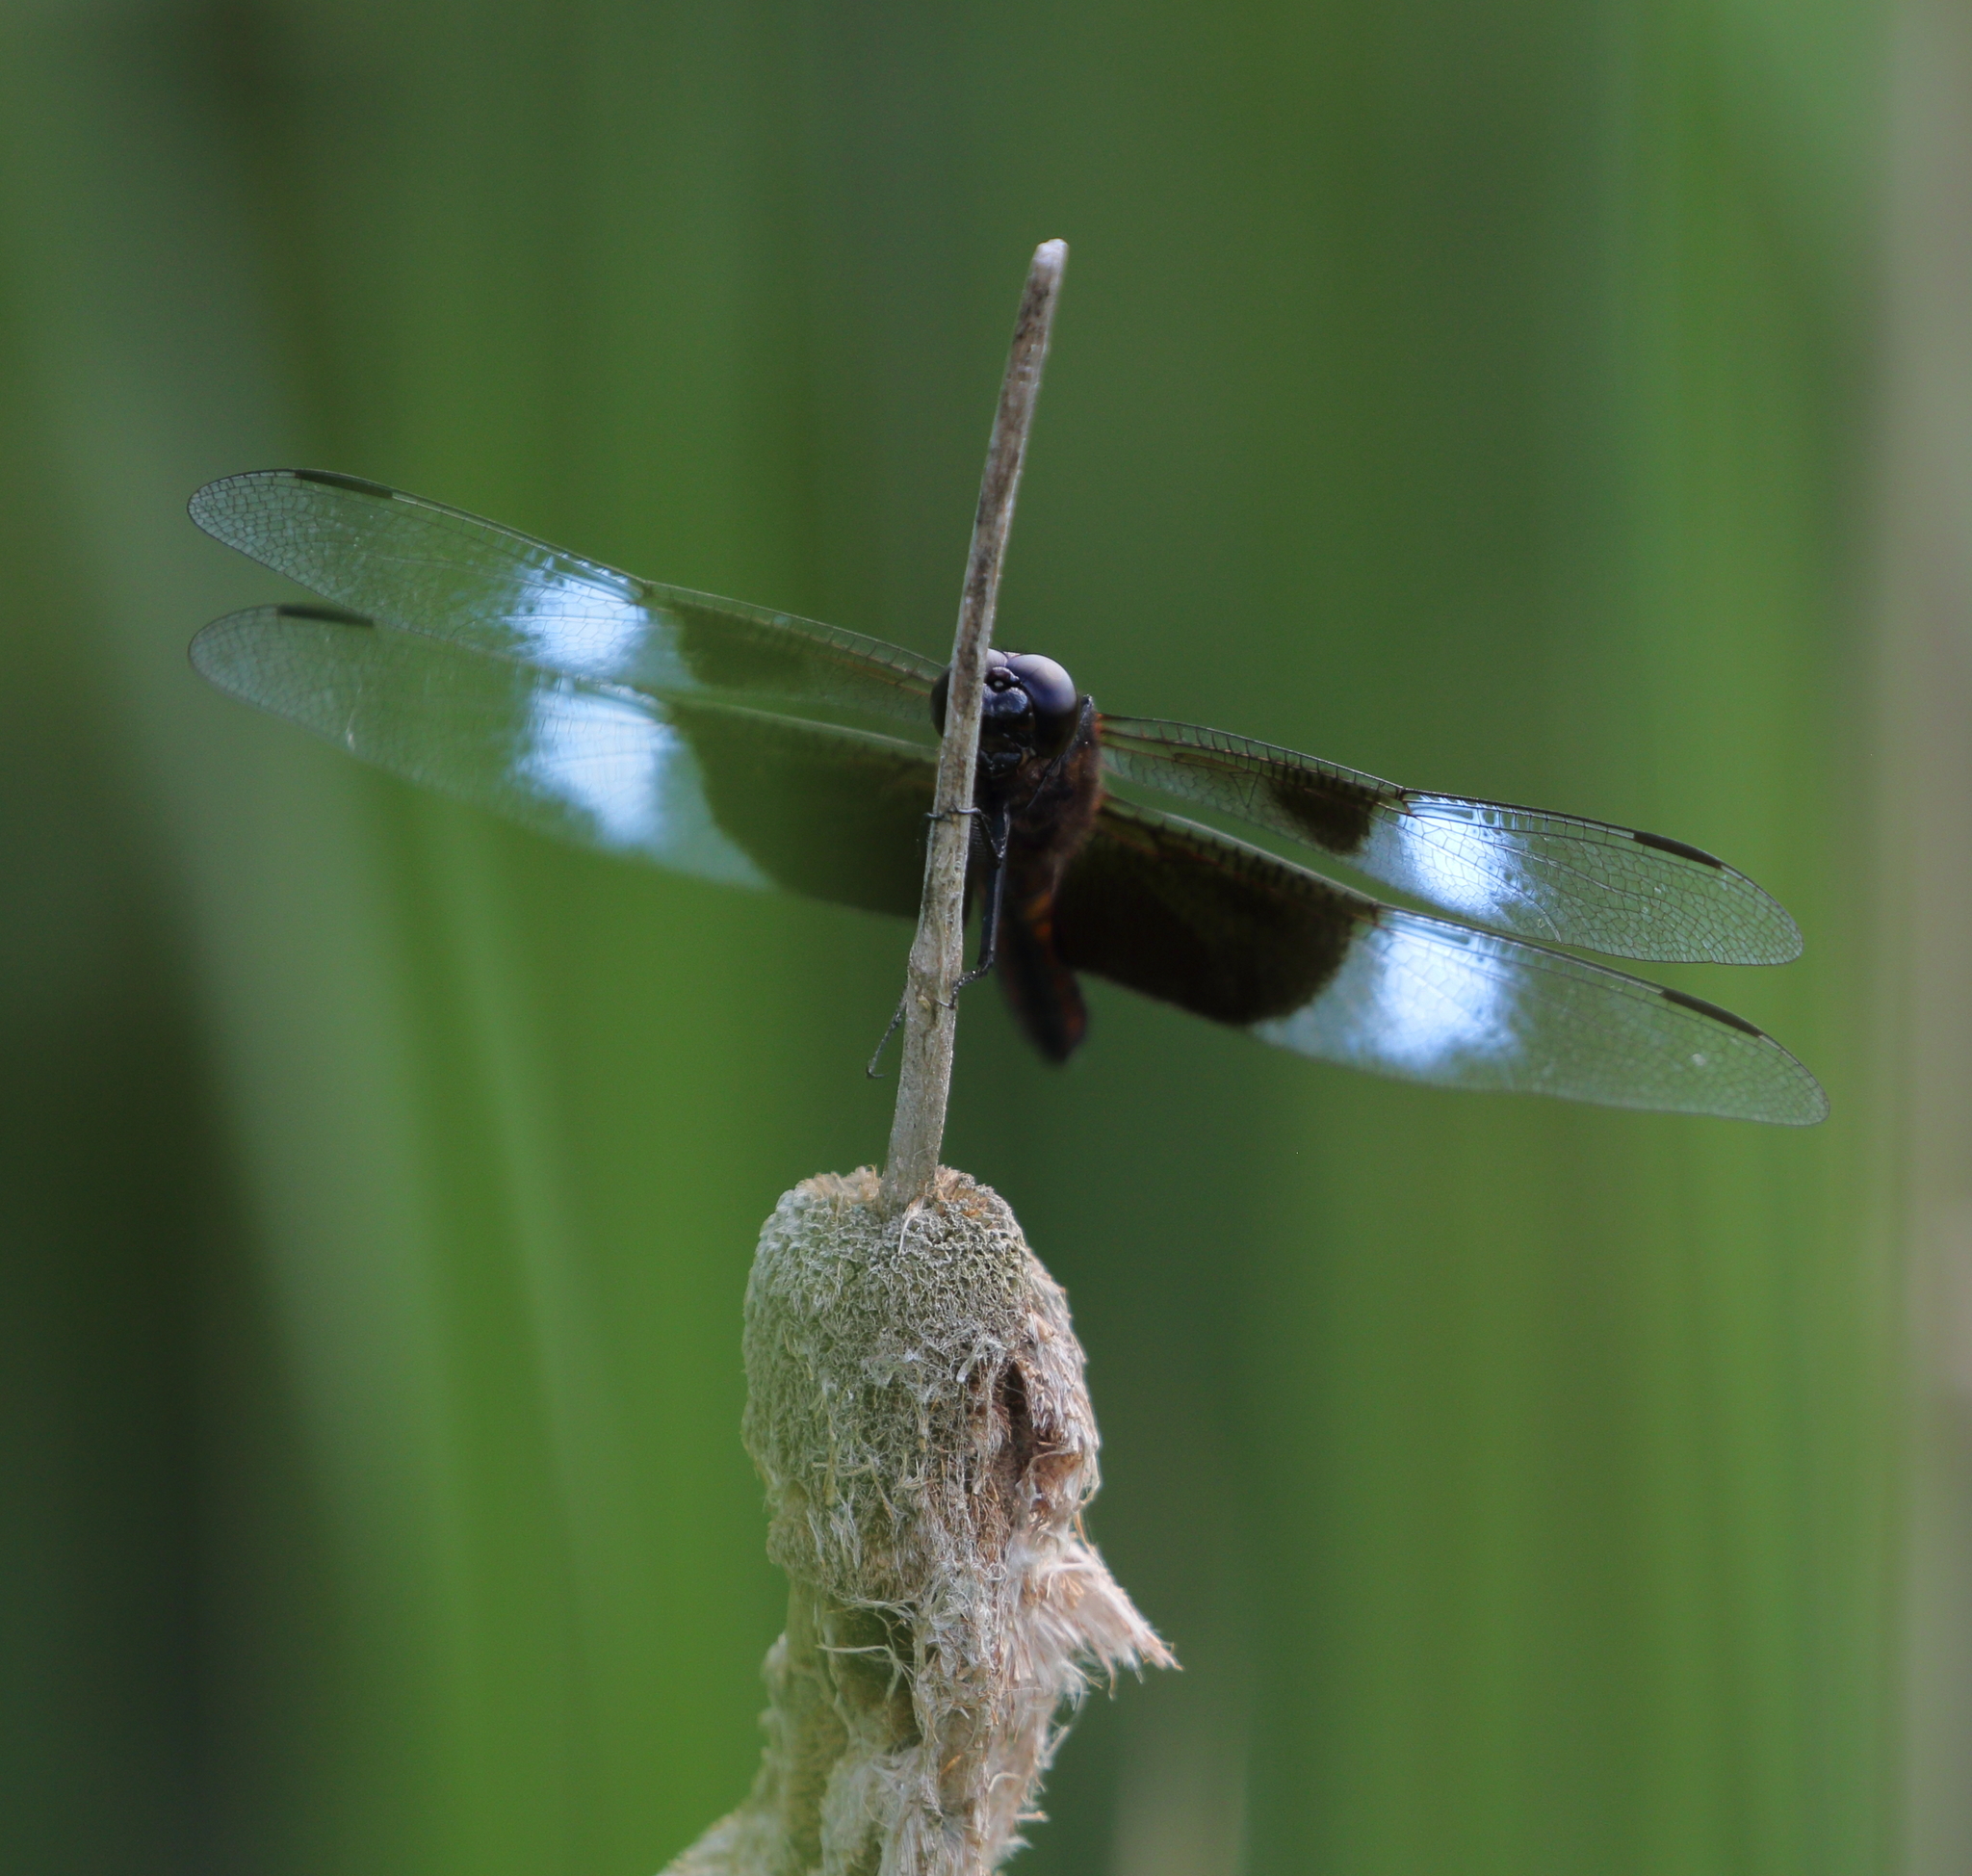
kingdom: Animalia
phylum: Arthropoda
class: Insecta
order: Odonata
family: Libellulidae
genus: Libellula
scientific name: Libellula luctuosa
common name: Widow skimmer
